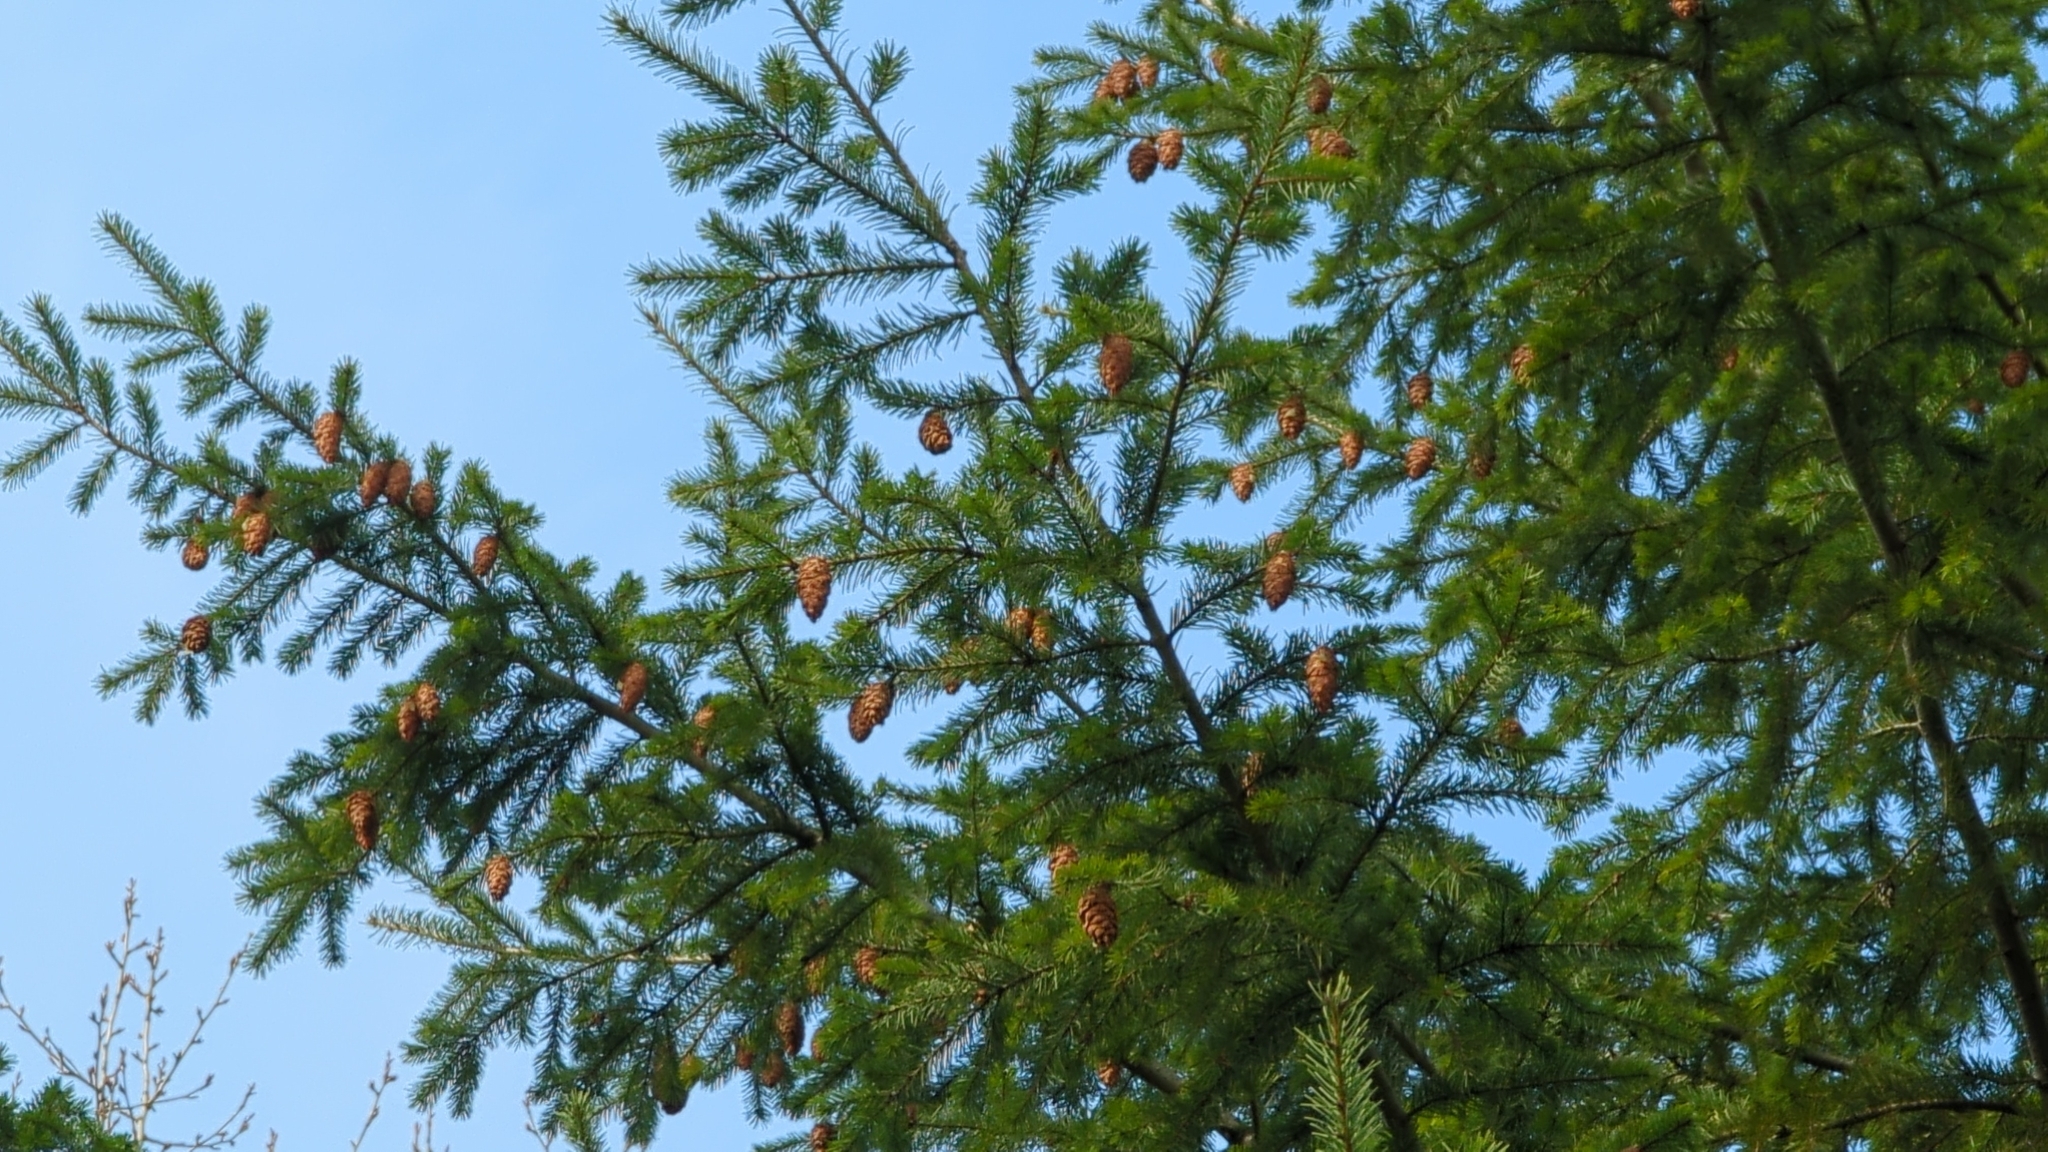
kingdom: Plantae
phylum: Tracheophyta
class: Pinopsida
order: Pinales
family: Pinaceae
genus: Pseudotsuga
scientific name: Pseudotsuga menziesii
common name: Douglas fir
